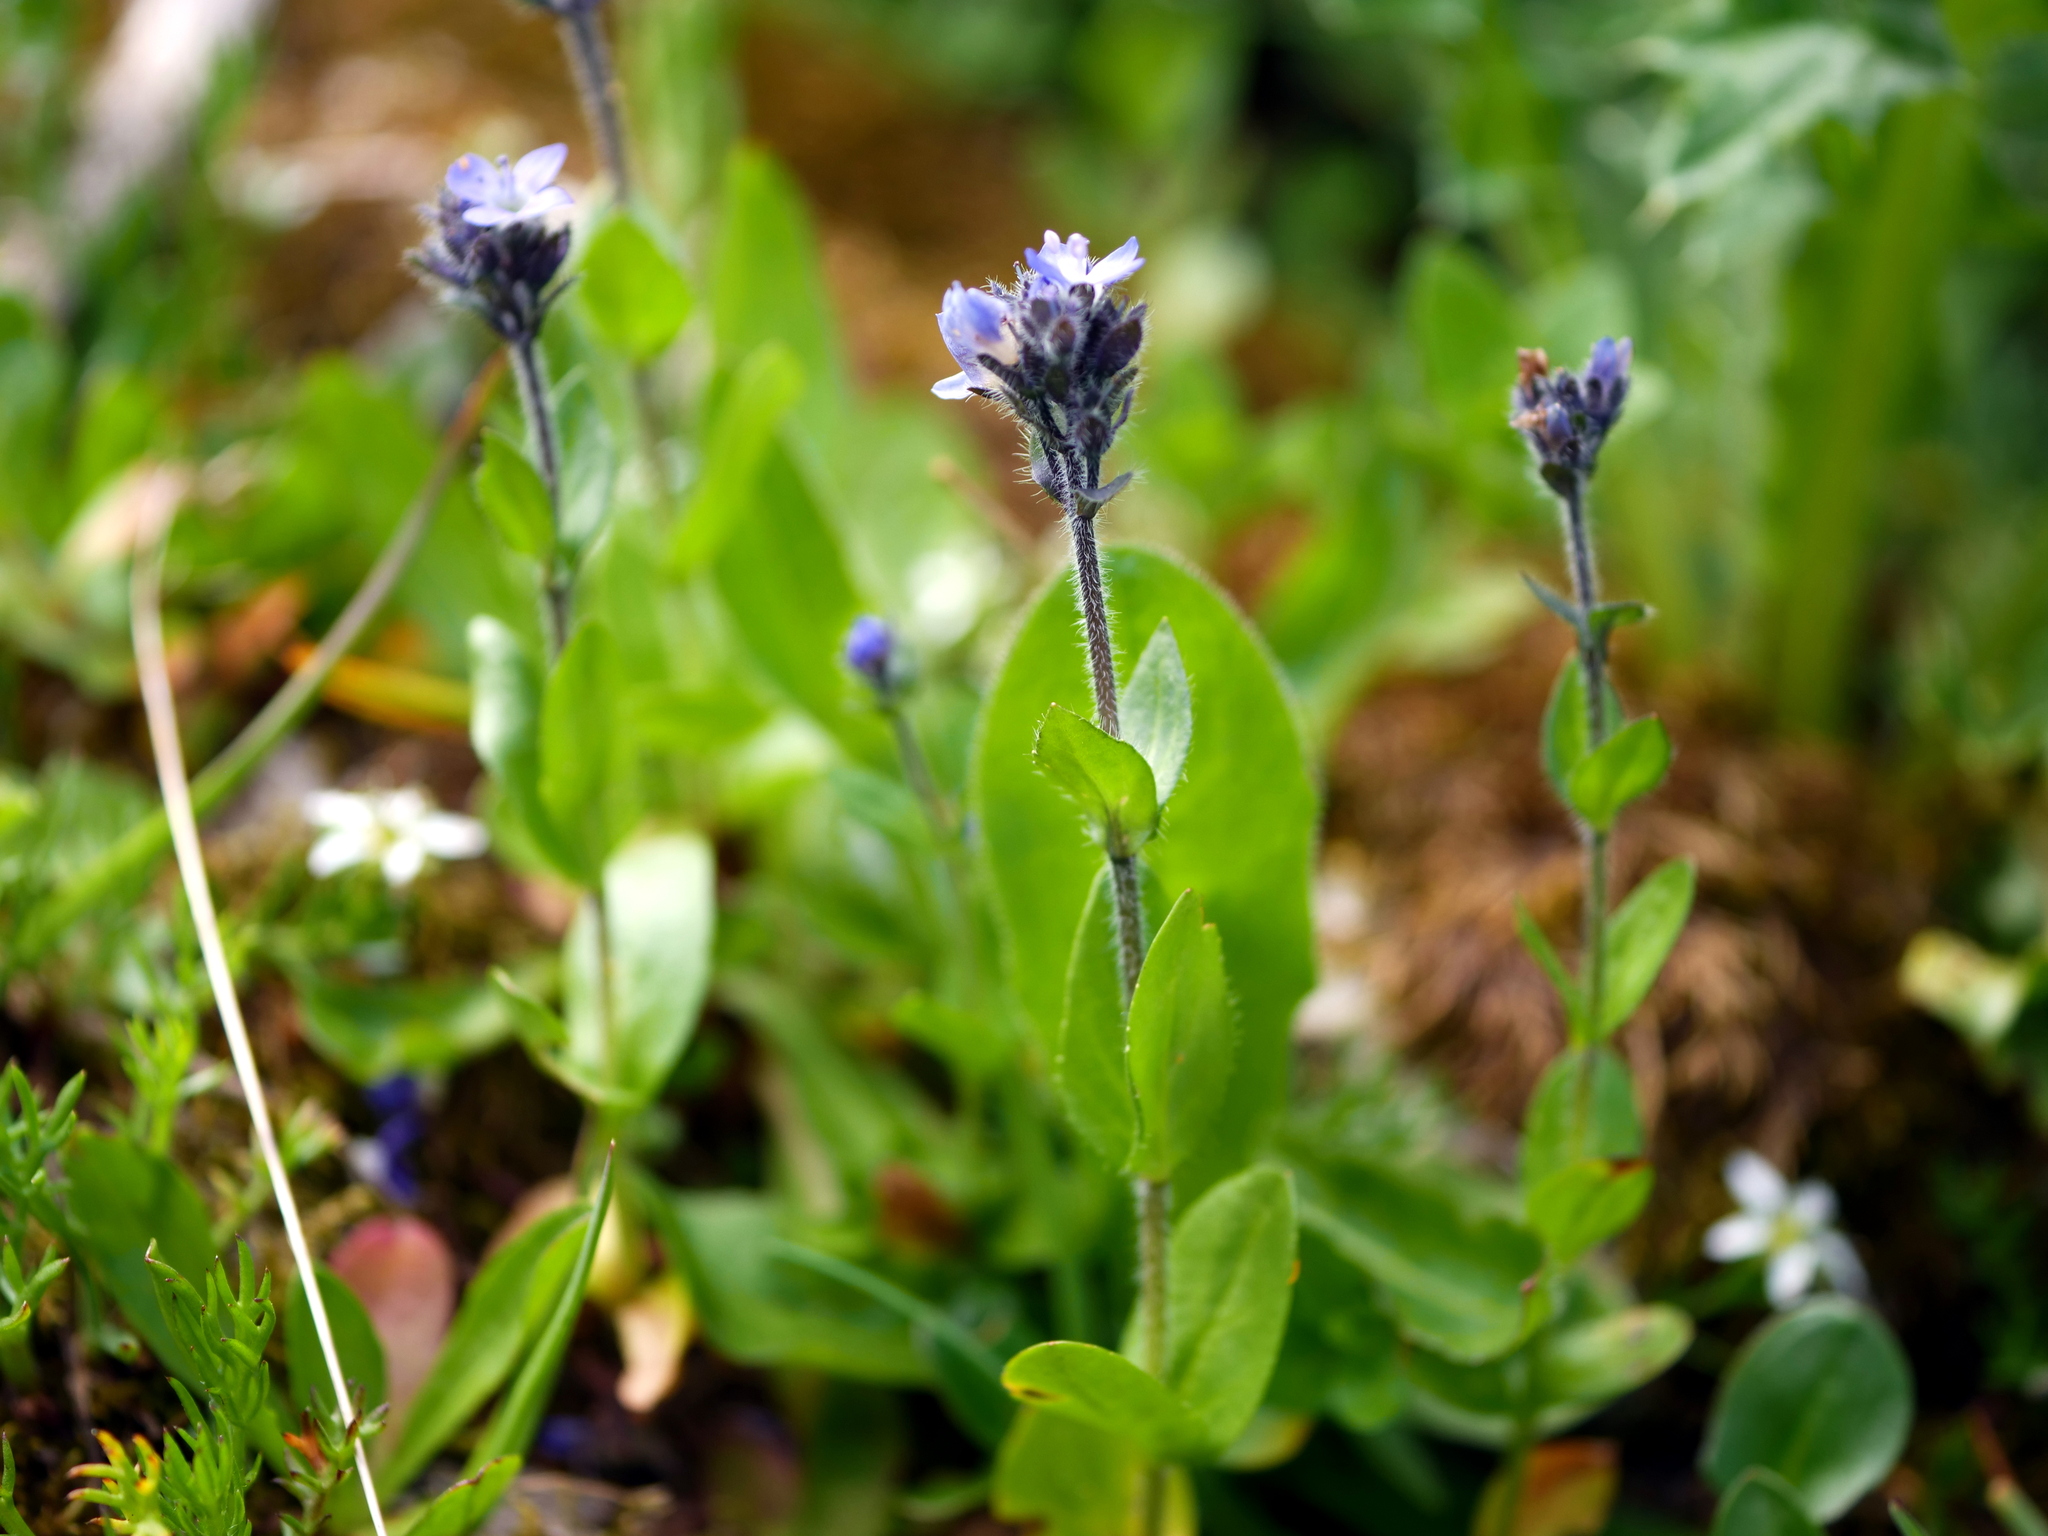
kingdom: Plantae
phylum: Tracheophyta
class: Magnoliopsida
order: Lamiales
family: Plantaginaceae
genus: Veronica
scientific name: Veronica alpina
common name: Alpine speedwell
